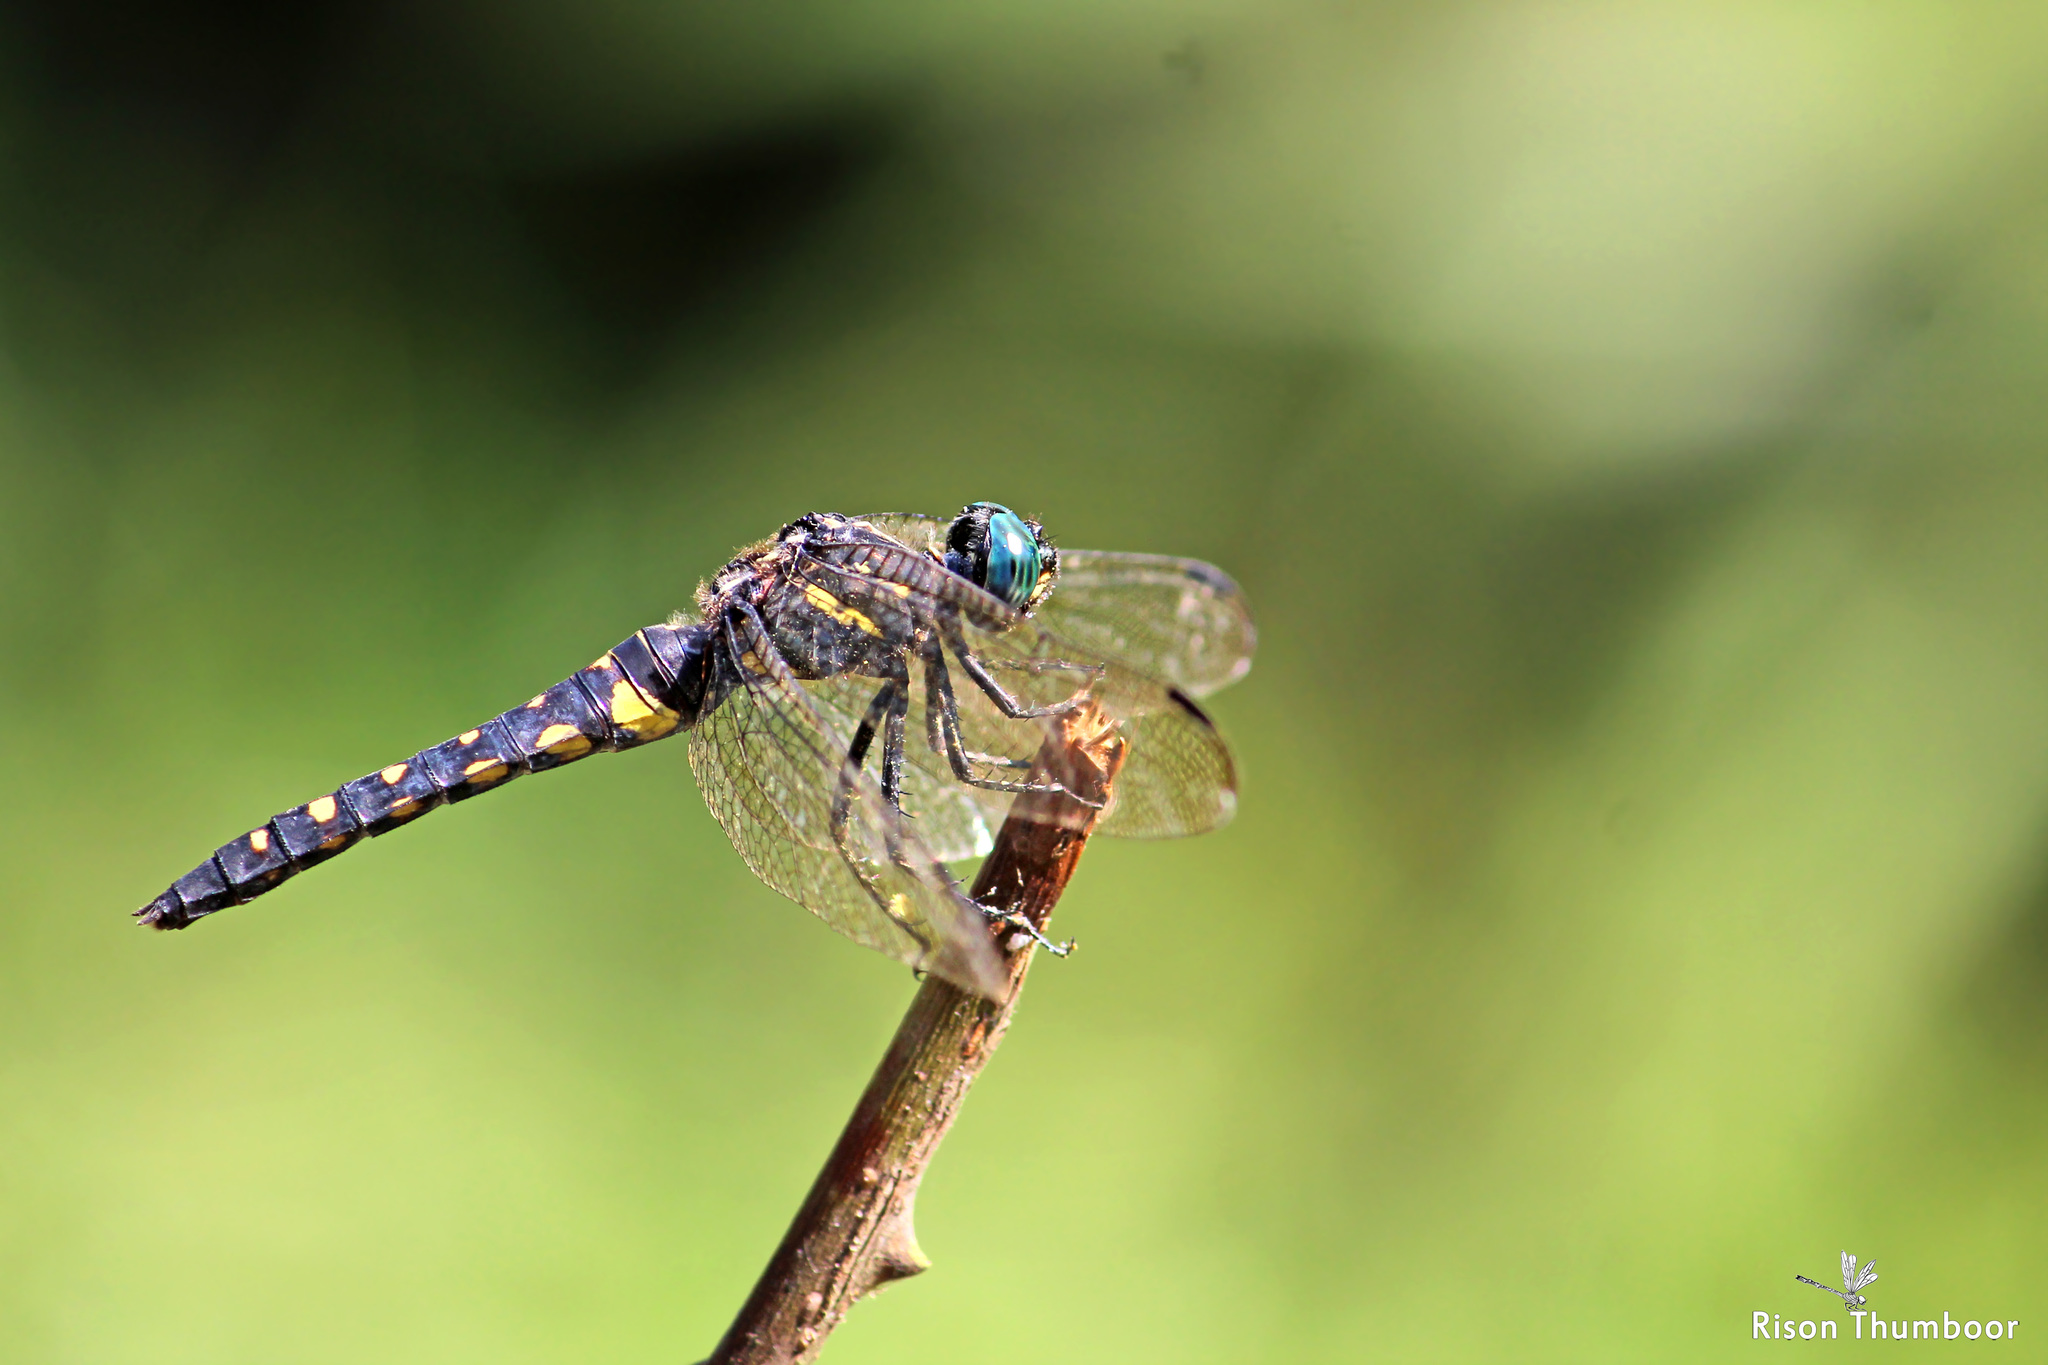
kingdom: Animalia
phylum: Arthropoda
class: Insecta
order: Odonata
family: Libellulidae
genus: Onychothemis
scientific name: Onychothemis testacea
